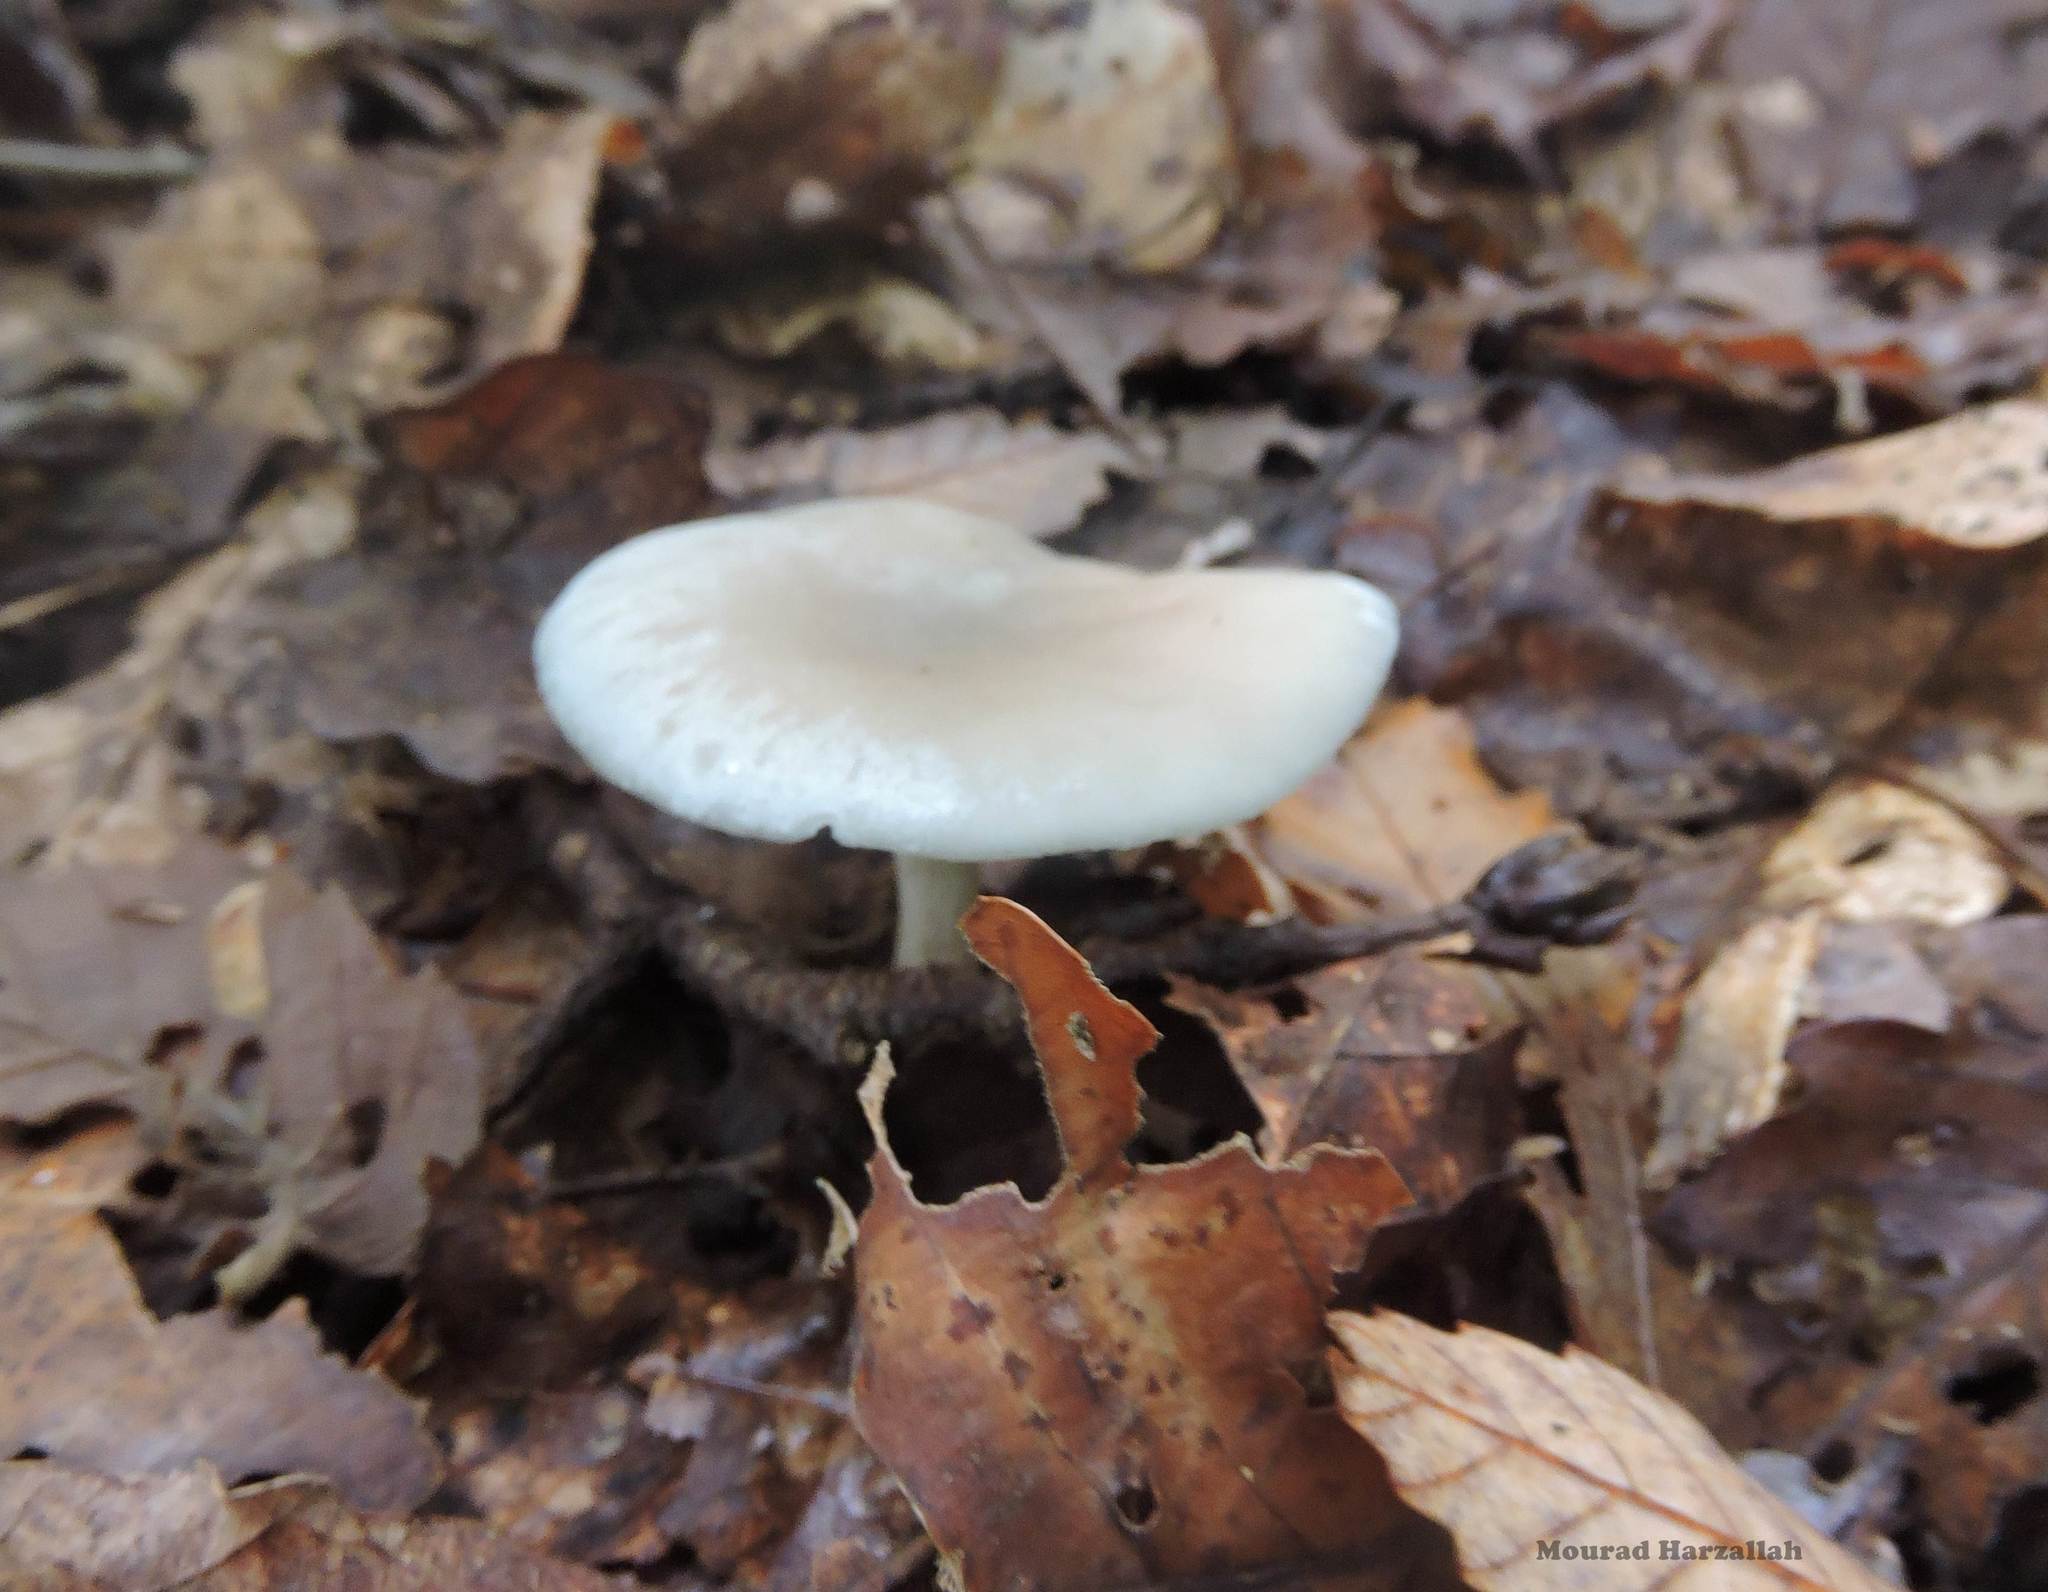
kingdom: Fungi
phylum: Basidiomycota
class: Agaricomycetes
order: Agaricales
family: Tricholomataceae
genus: Collybia
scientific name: Collybia
